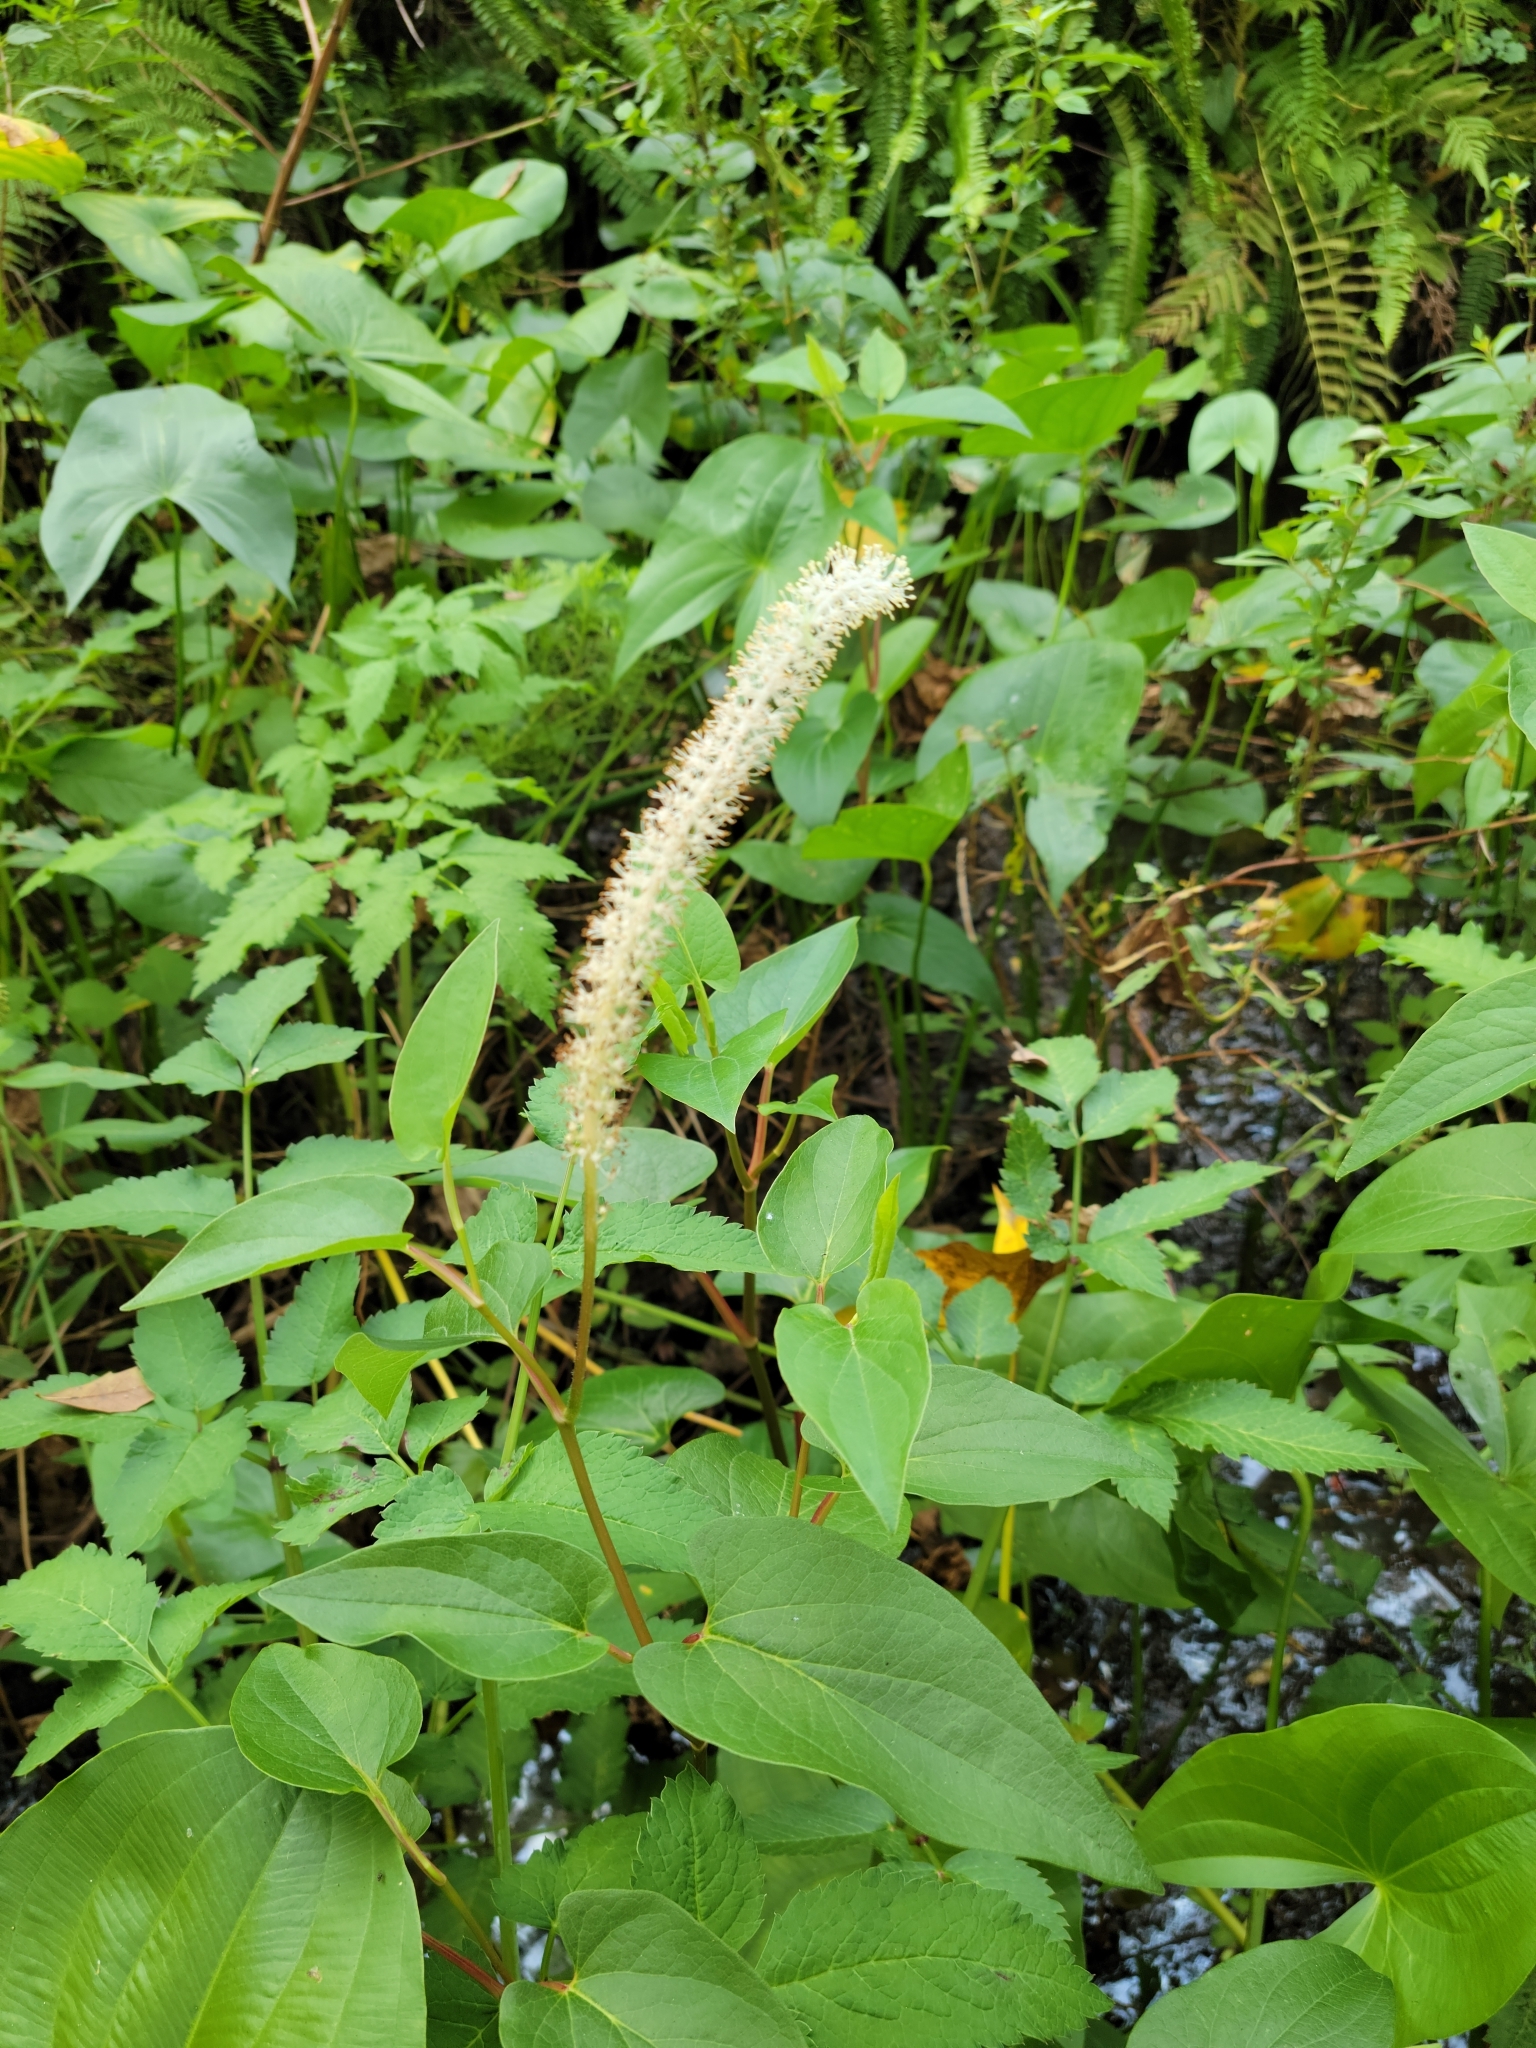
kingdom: Plantae
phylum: Tracheophyta
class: Magnoliopsida
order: Piperales
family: Saururaceae
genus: Saururus
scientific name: Saururus cernuus
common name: Lizard's-tail
